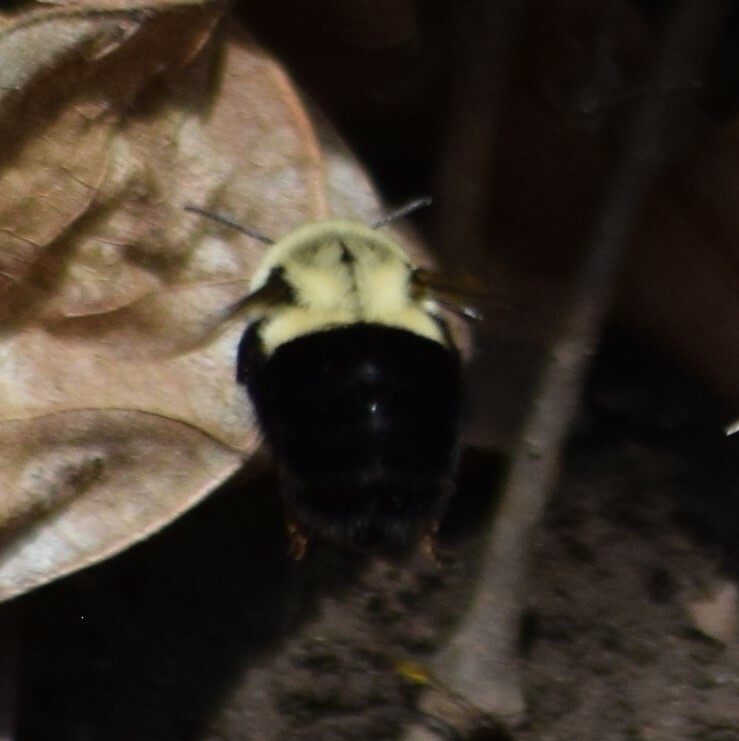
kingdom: Animalia
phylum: Arthropoda
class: Insecta
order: Hymenoptera
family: Apidae
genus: Bombus
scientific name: Bombus impatiens
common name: Common eastern bumble bee
